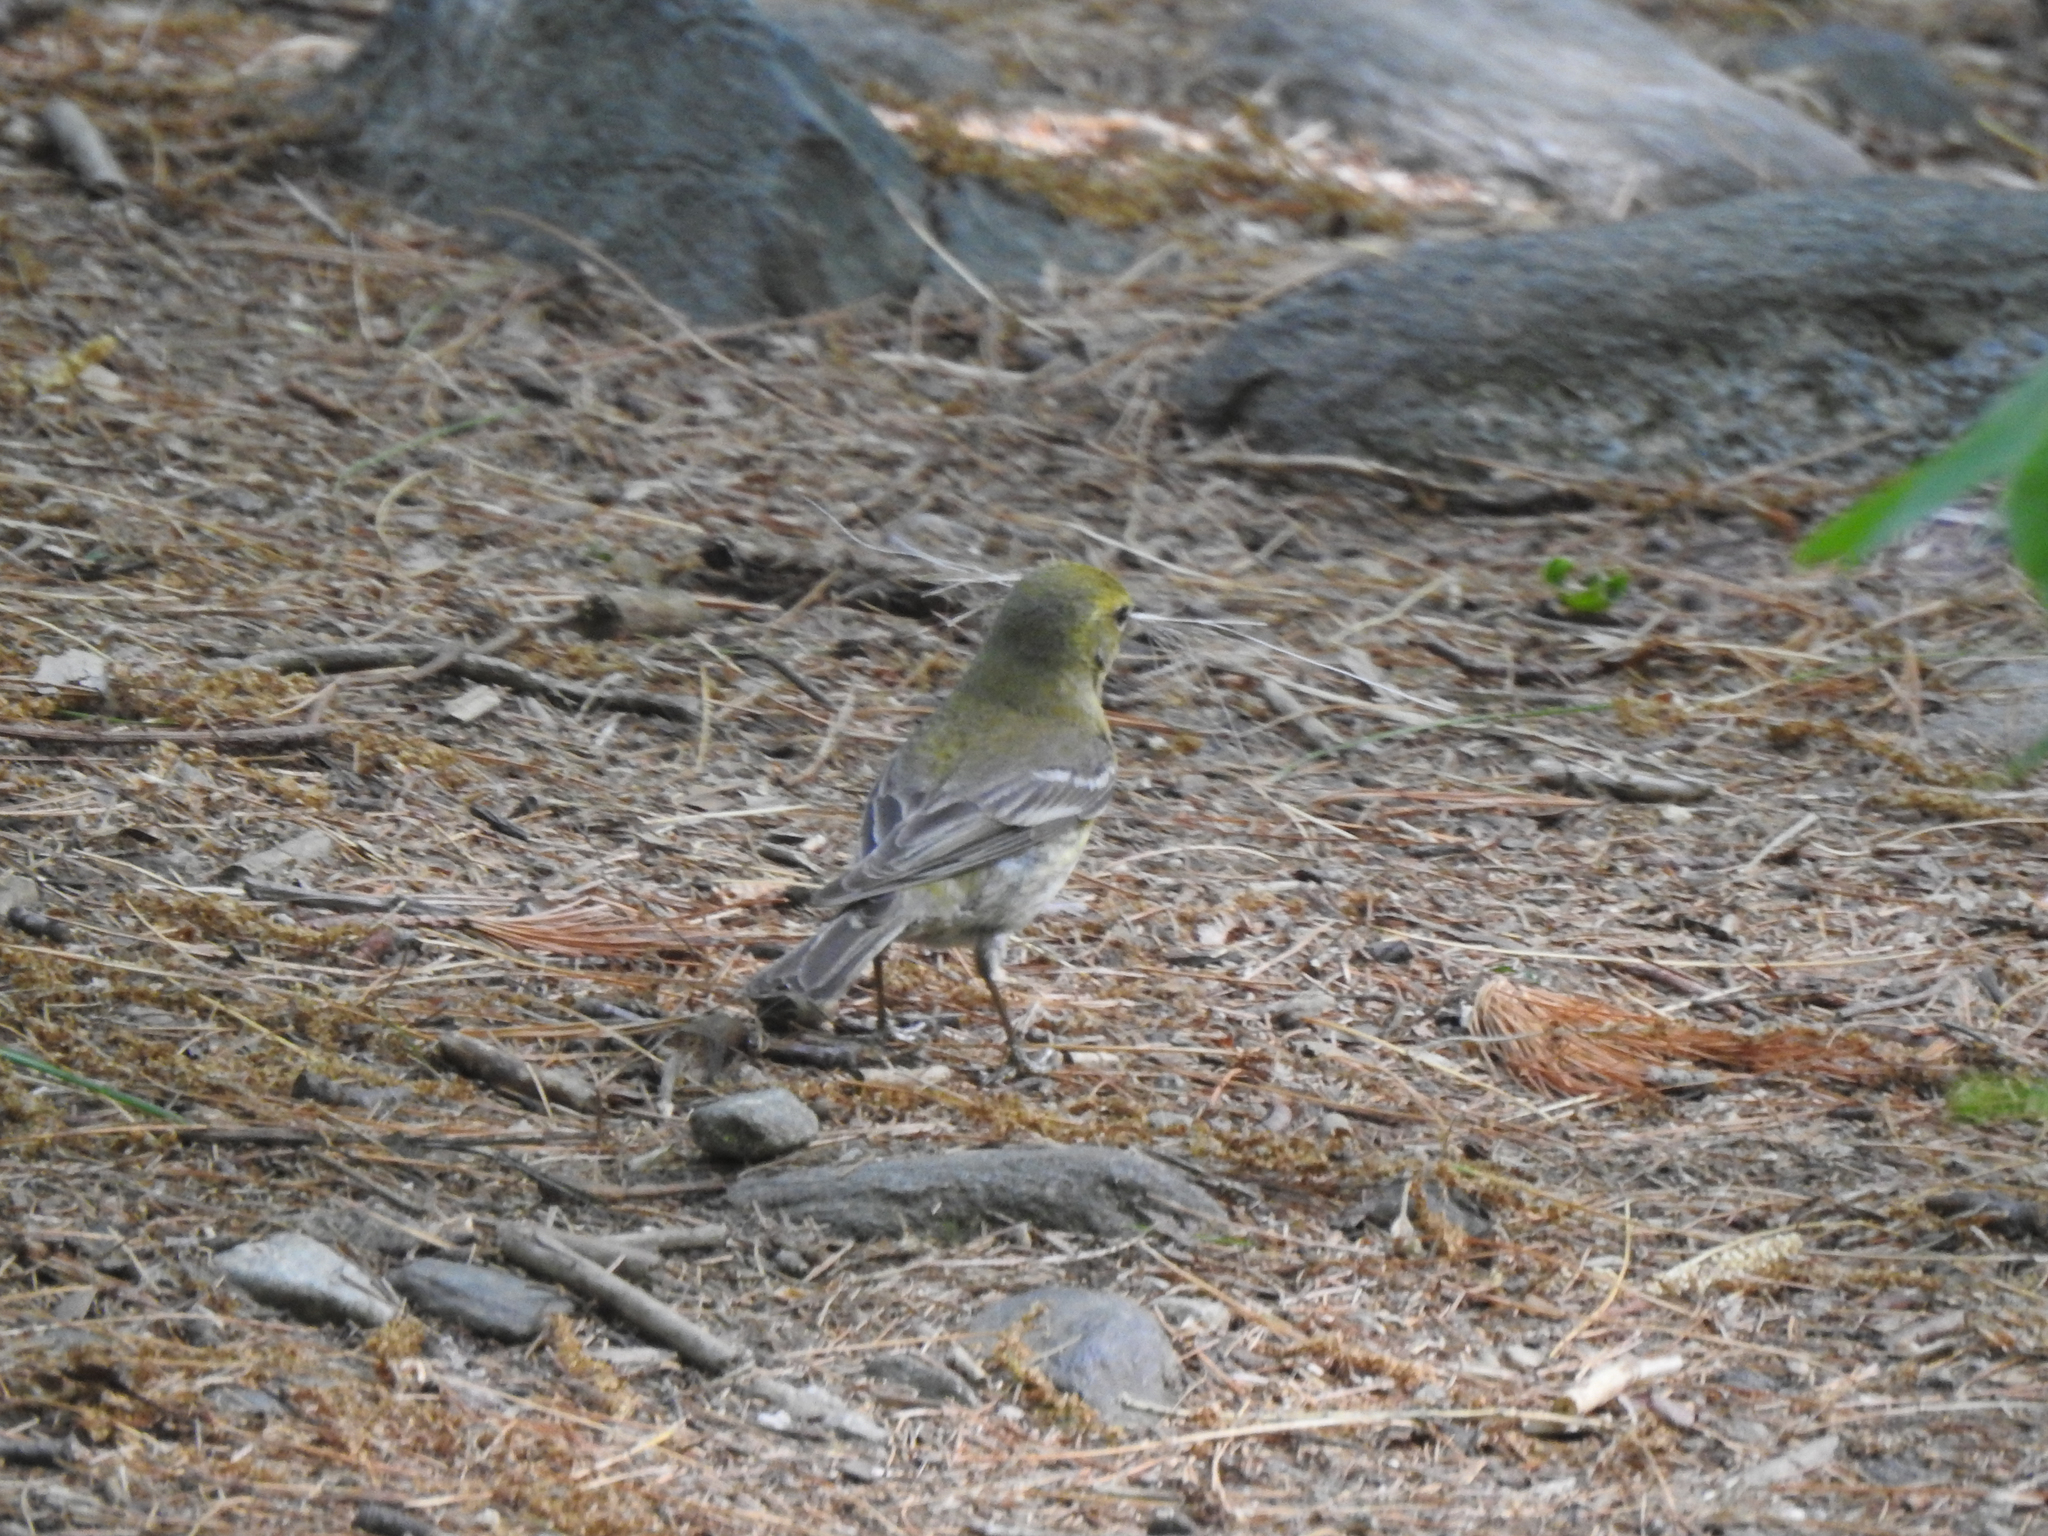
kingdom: Animalia
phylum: Chordata
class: Aves
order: Passeriformes
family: Parulidae
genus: Setophaga
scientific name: Setophaga pinus
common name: Pine warbler
